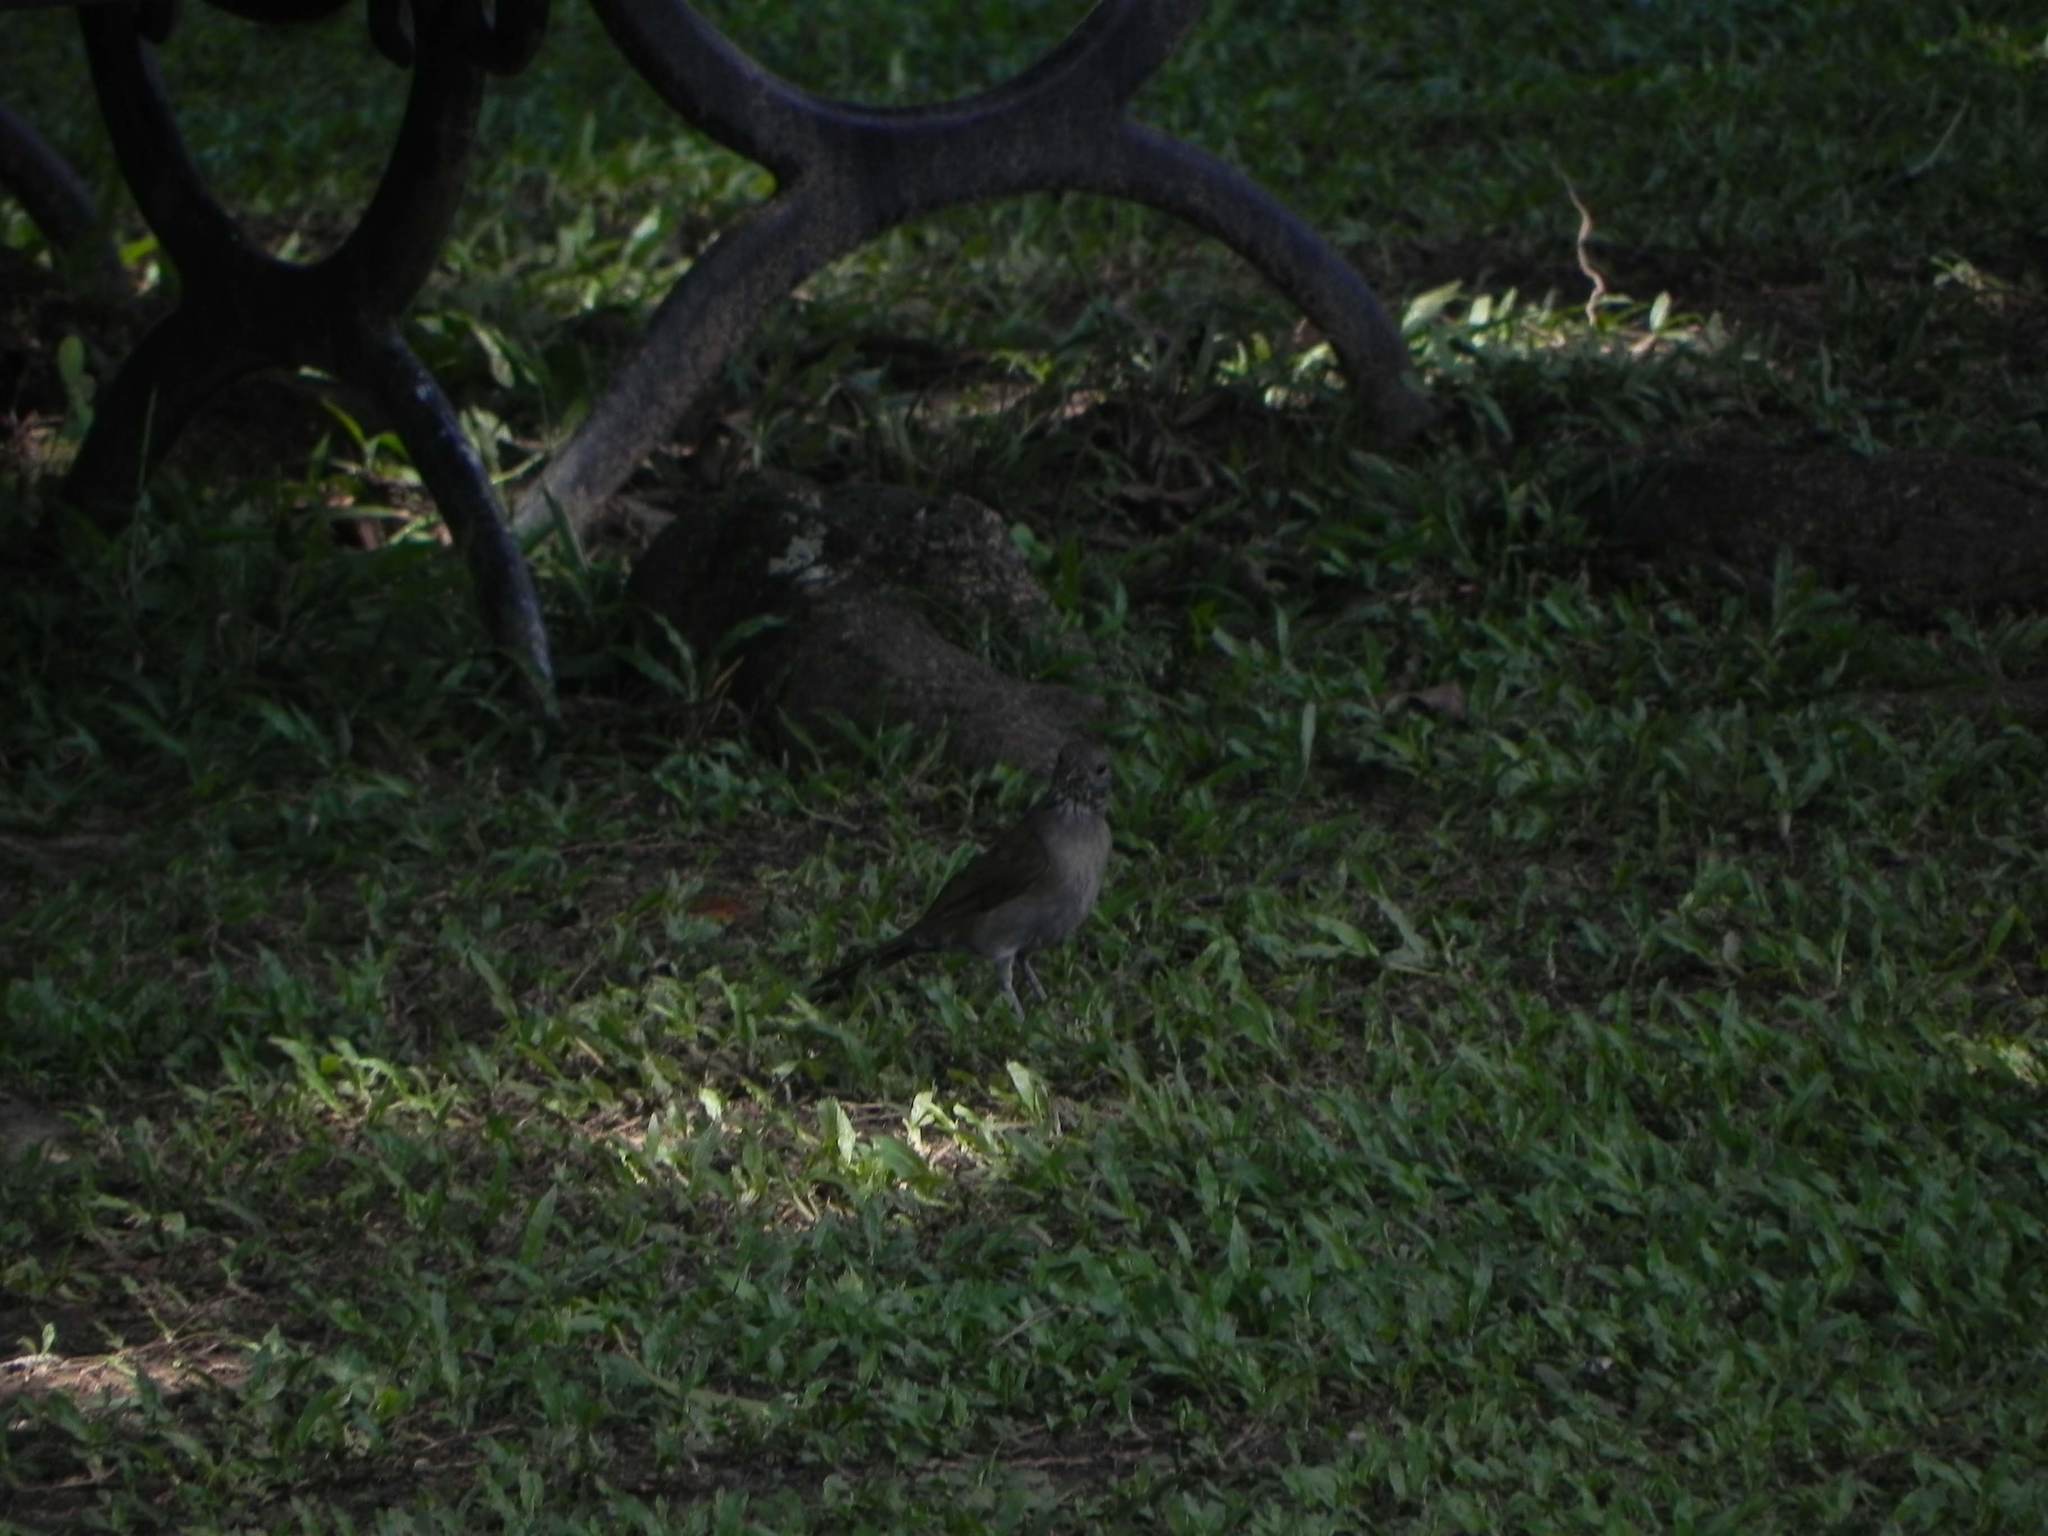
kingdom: Animalia
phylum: Chordata
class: Aves
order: Passeriformes
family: Turdidae
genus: Turdus
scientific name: Turdus leucomelas
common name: Pale-breasted thrush
